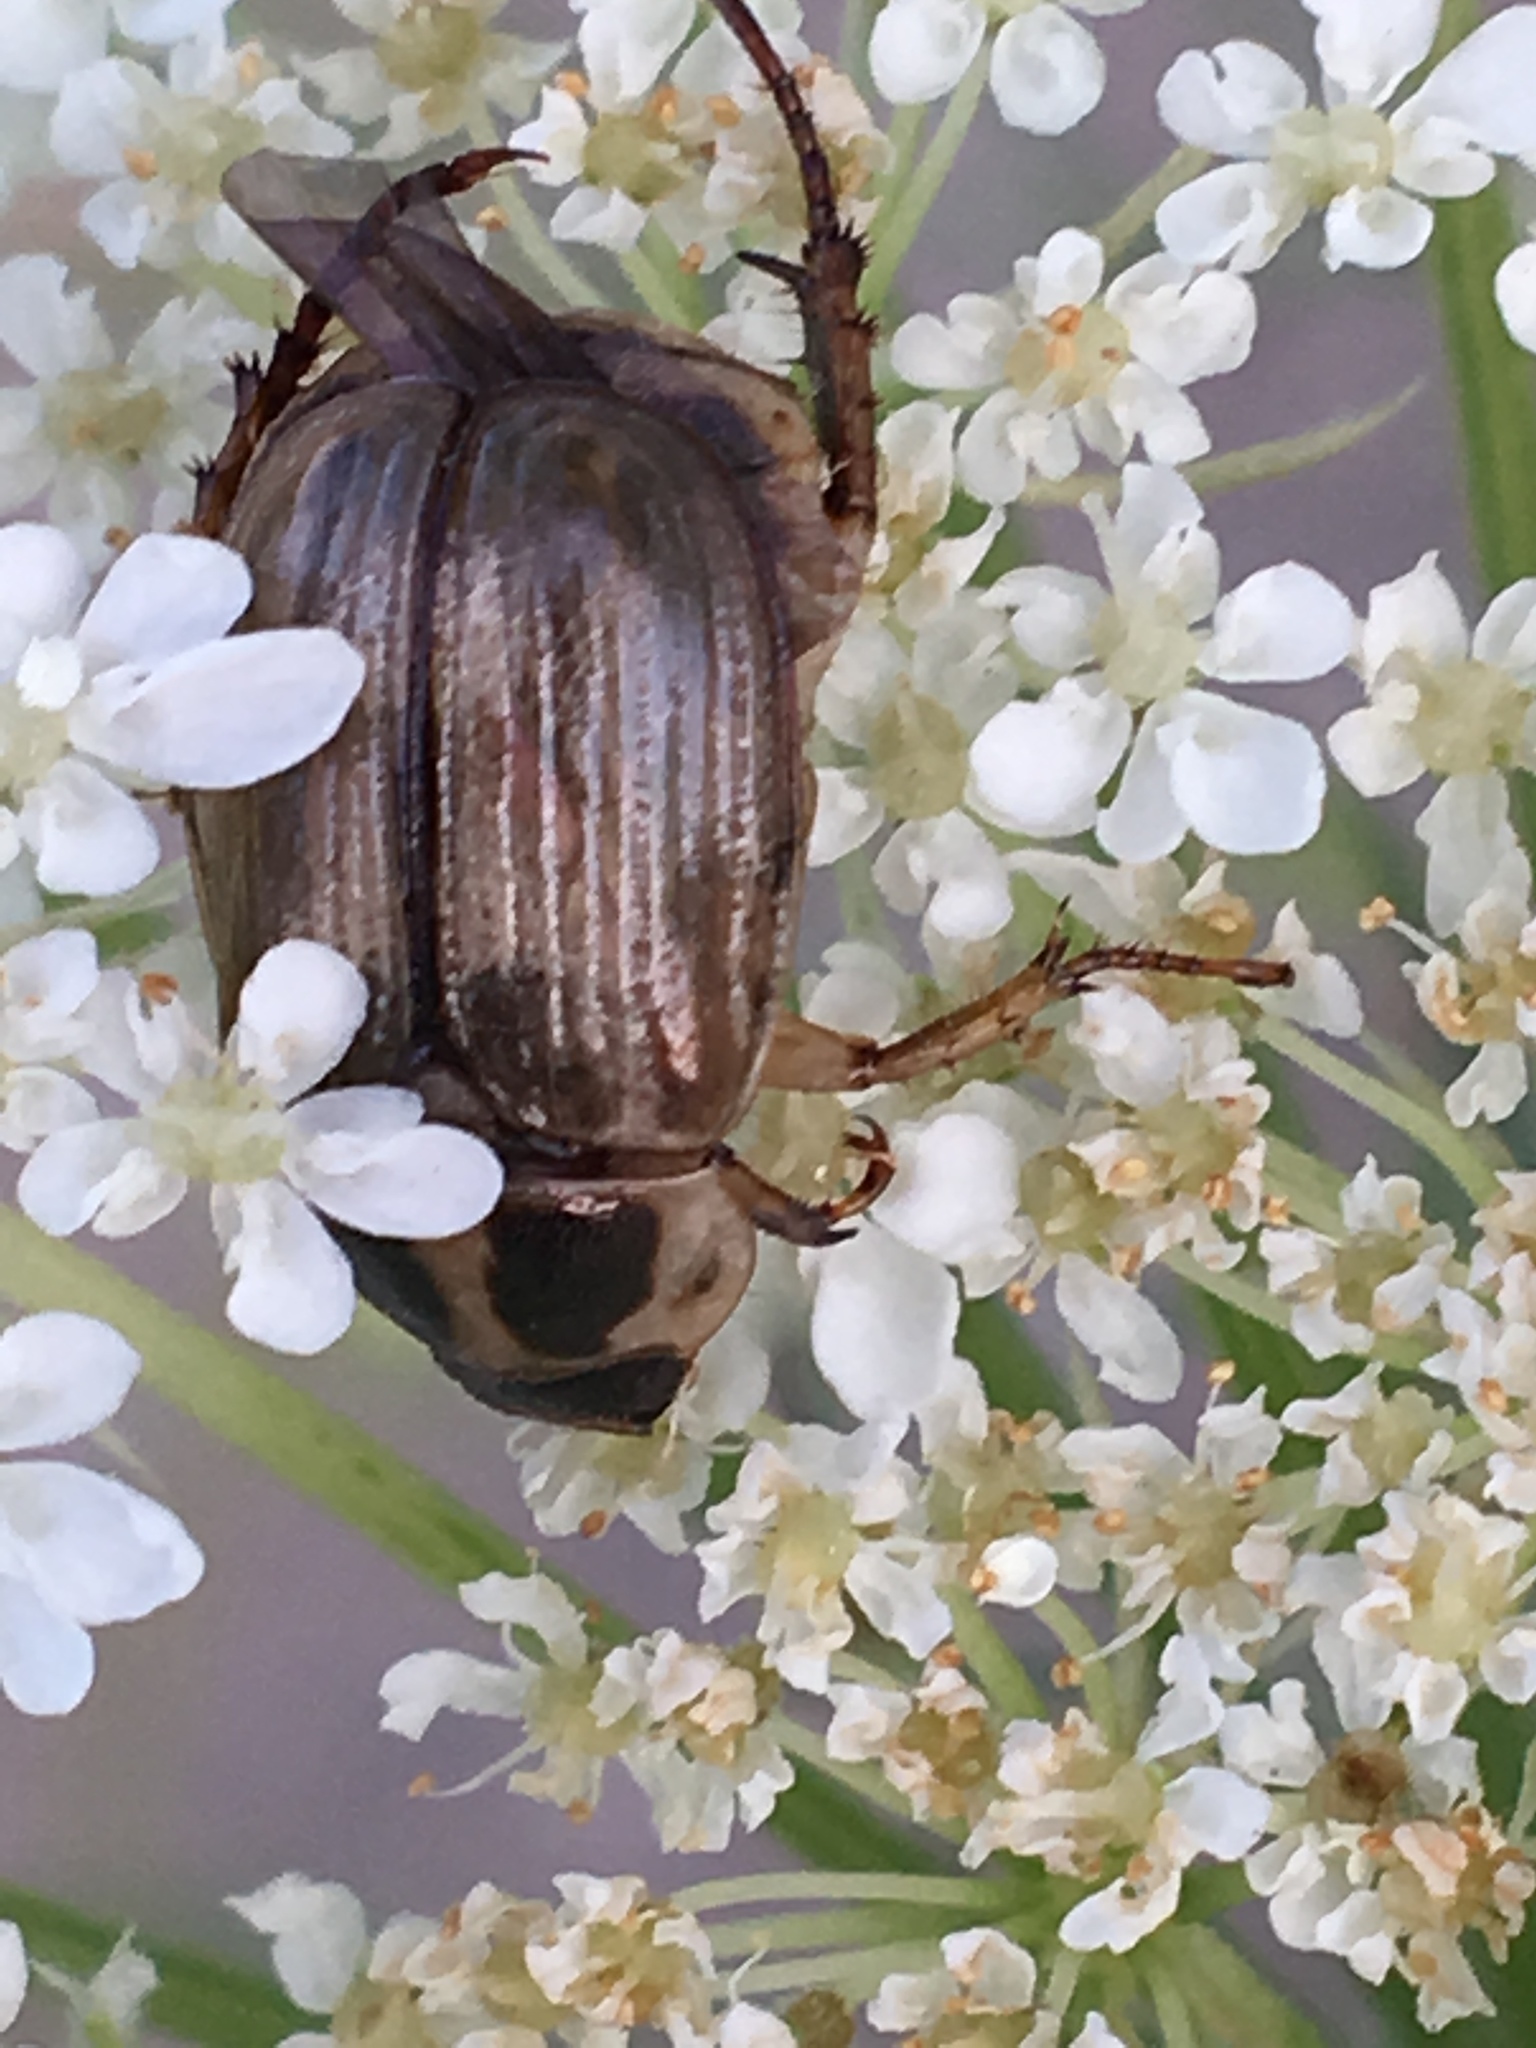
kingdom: Animalia
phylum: Arthropoda
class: Insecta
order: Coleoptera
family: Scarabaeidae
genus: Exomala
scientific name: Exomala orientalis
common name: Oriental beetle
